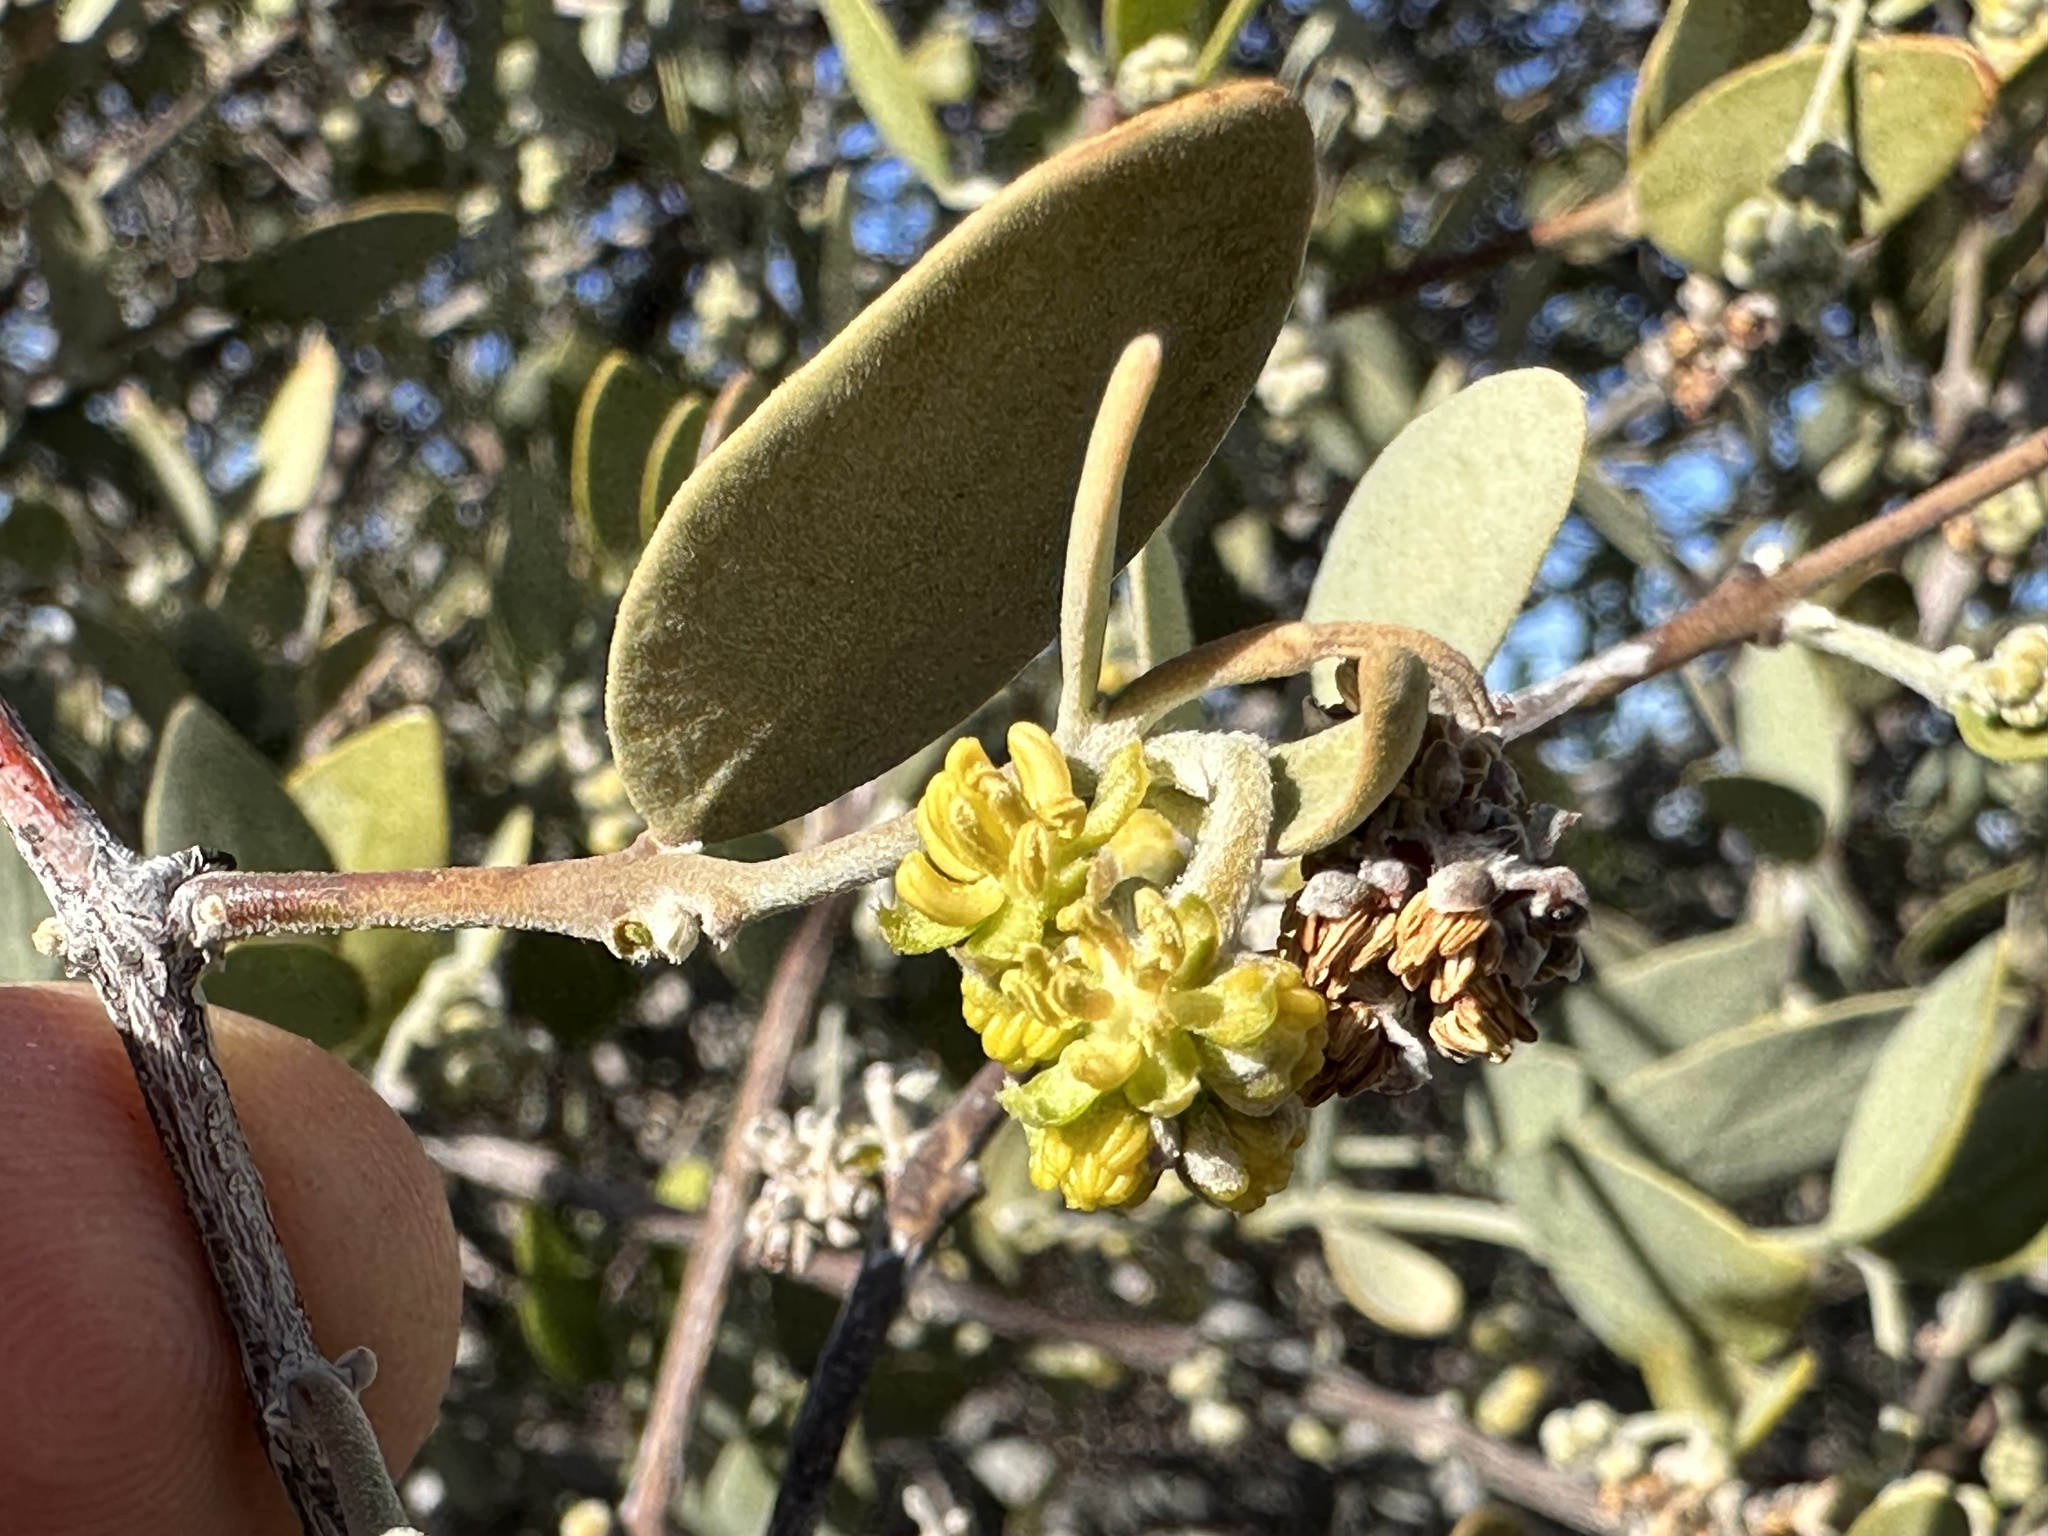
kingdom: Plantae
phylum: Tracheophyta
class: Magnoliopsida
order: Caryophyllales
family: Simmondsiaceae
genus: Simmondsia
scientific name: Simmondsia chinensis
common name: Jojoba
